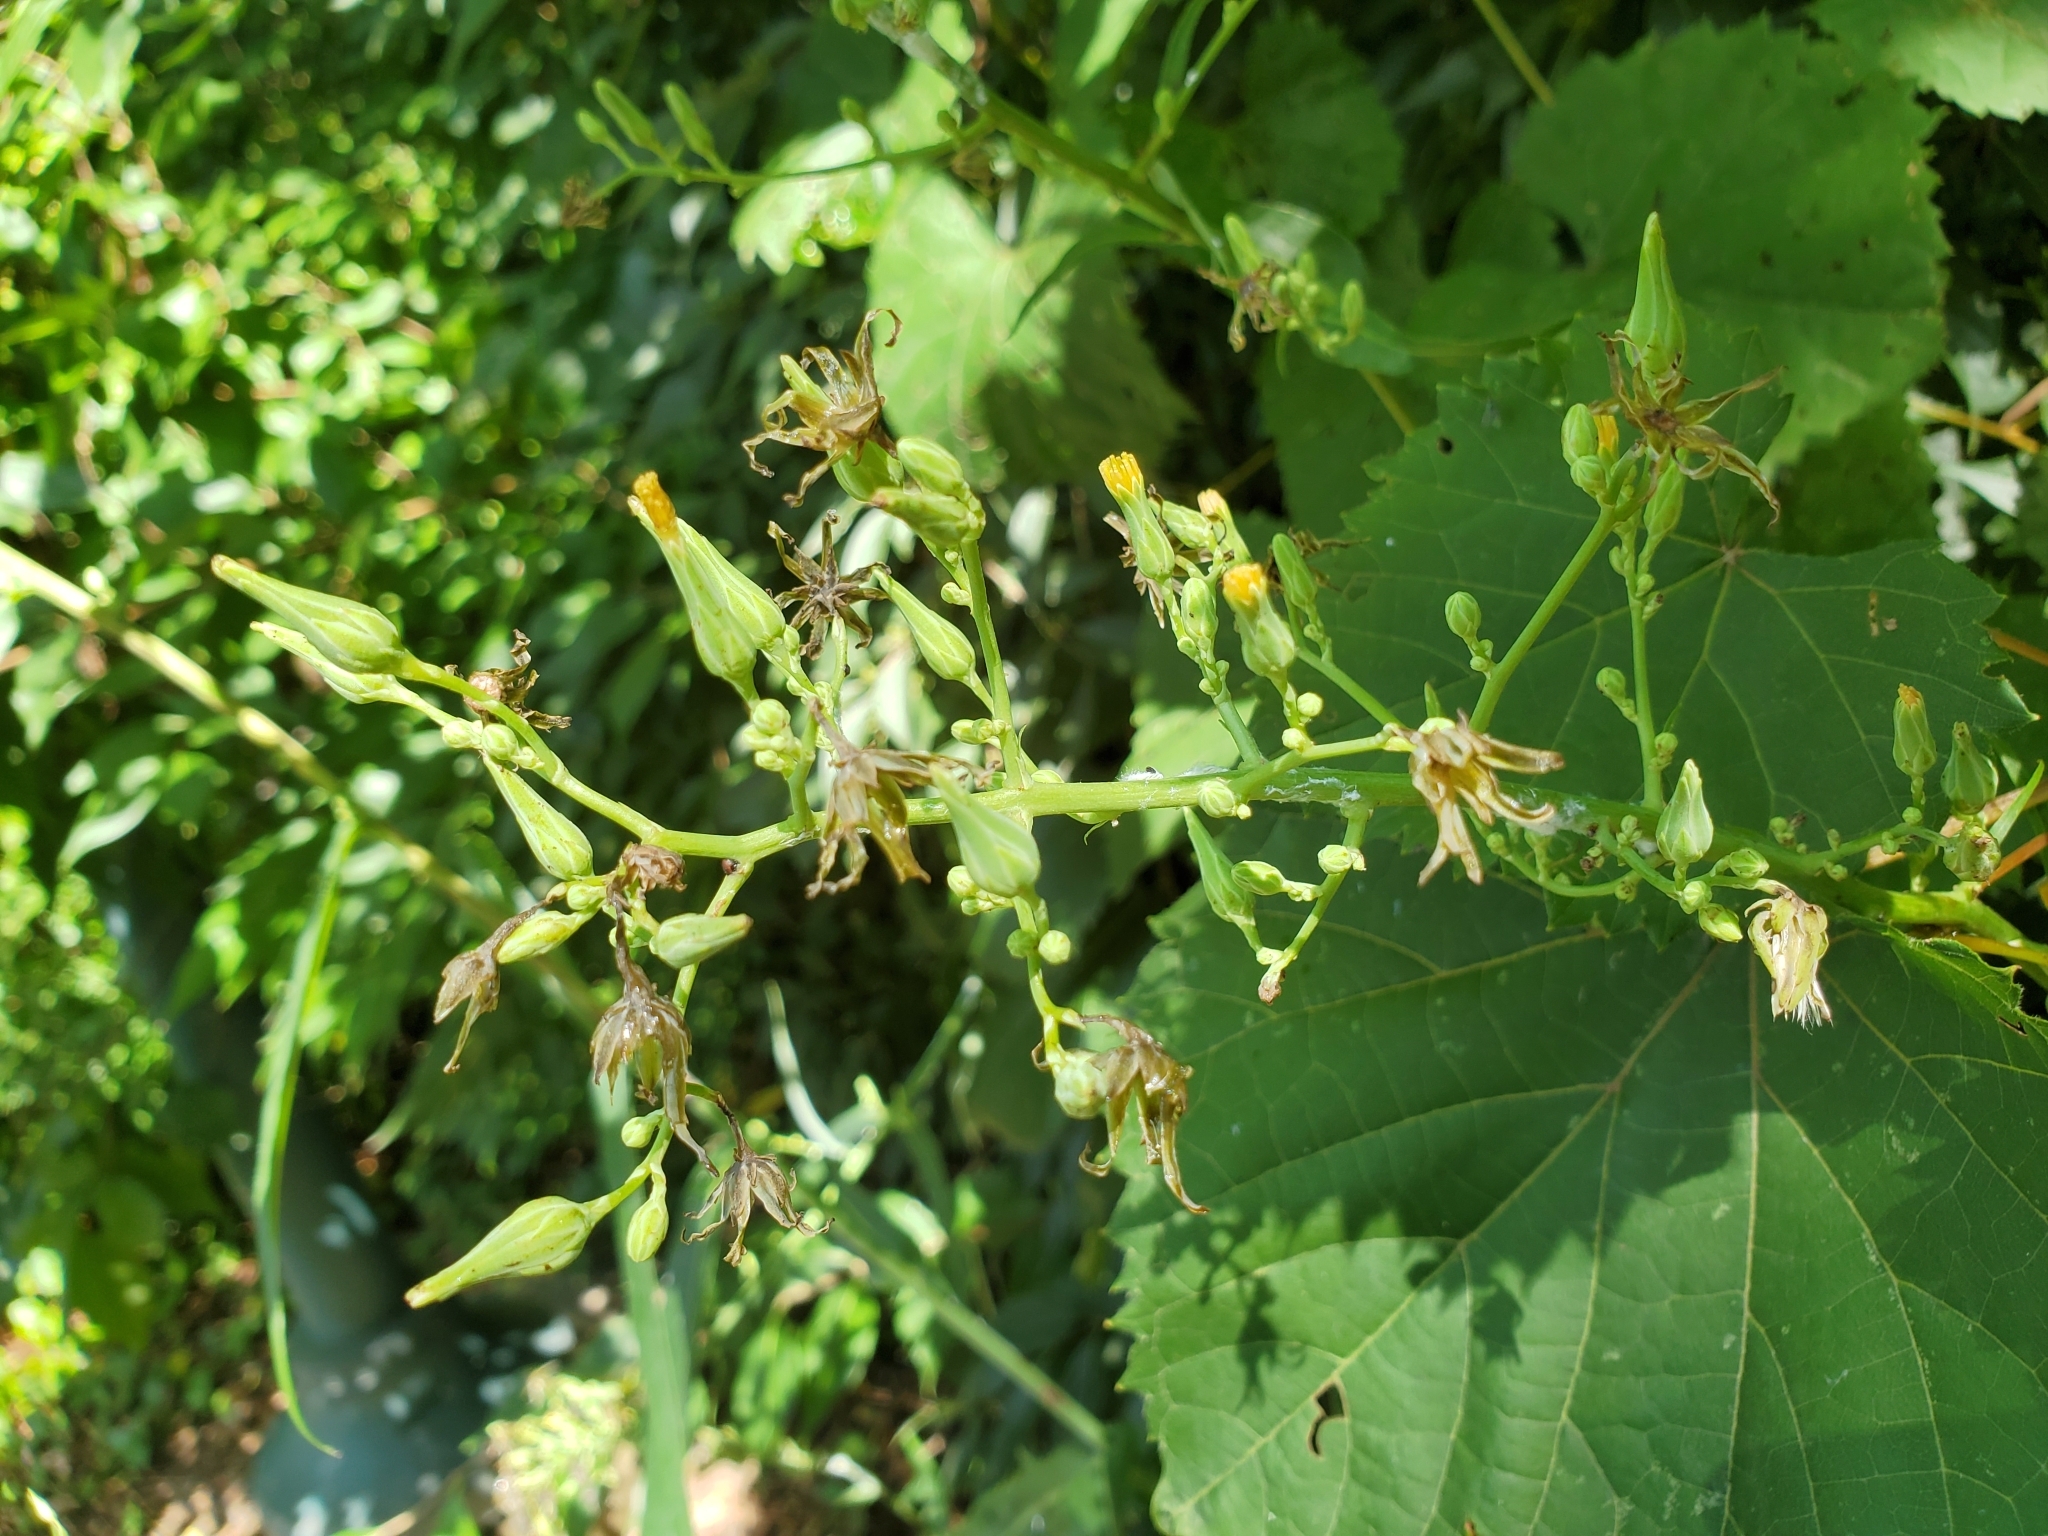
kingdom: Plantae
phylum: Tracheophyta
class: Magnoliopsida
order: Asterales
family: Asteraceae
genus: Lactuca
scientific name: Lactuca canadensis
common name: Canada lettuce
